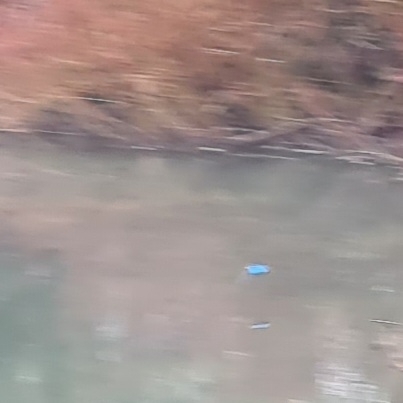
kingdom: Animalia
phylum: Chordata
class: Aves
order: Coraciiformes
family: Alcedinidae
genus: Alcedo
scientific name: Alcedo atthis
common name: Common kingfisher
